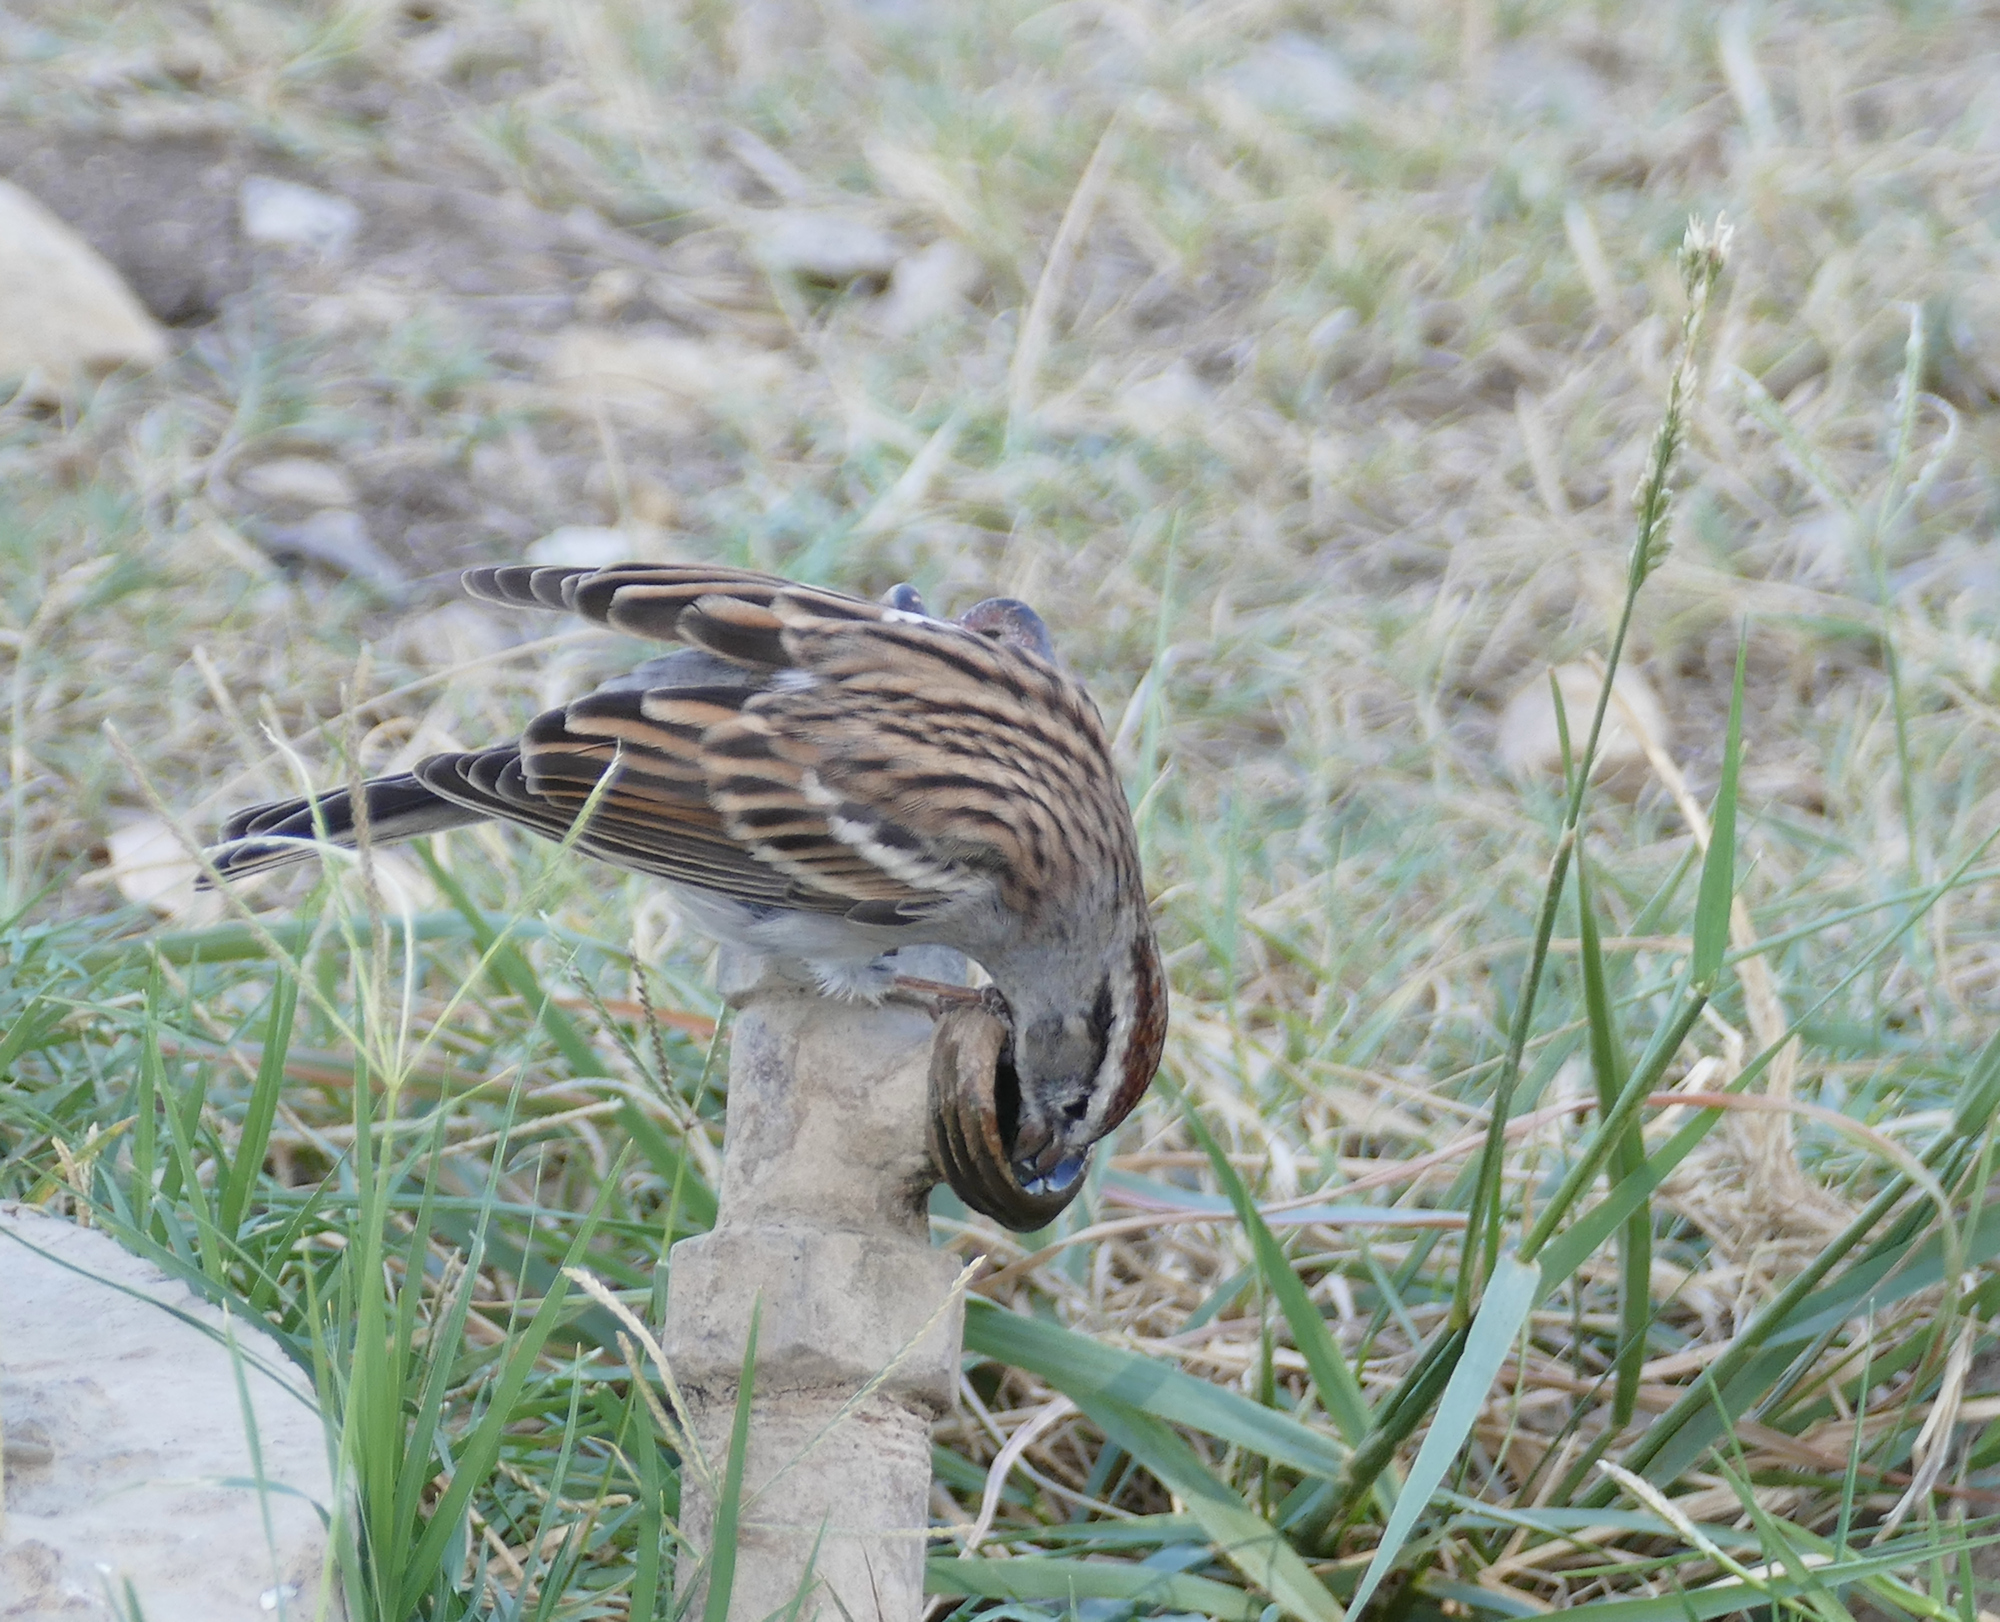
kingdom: Animalia
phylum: Chordata
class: Aves
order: Passeriformes
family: Passerellidae
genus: Spizella
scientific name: Spizella passerina
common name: Chipping sparrow
